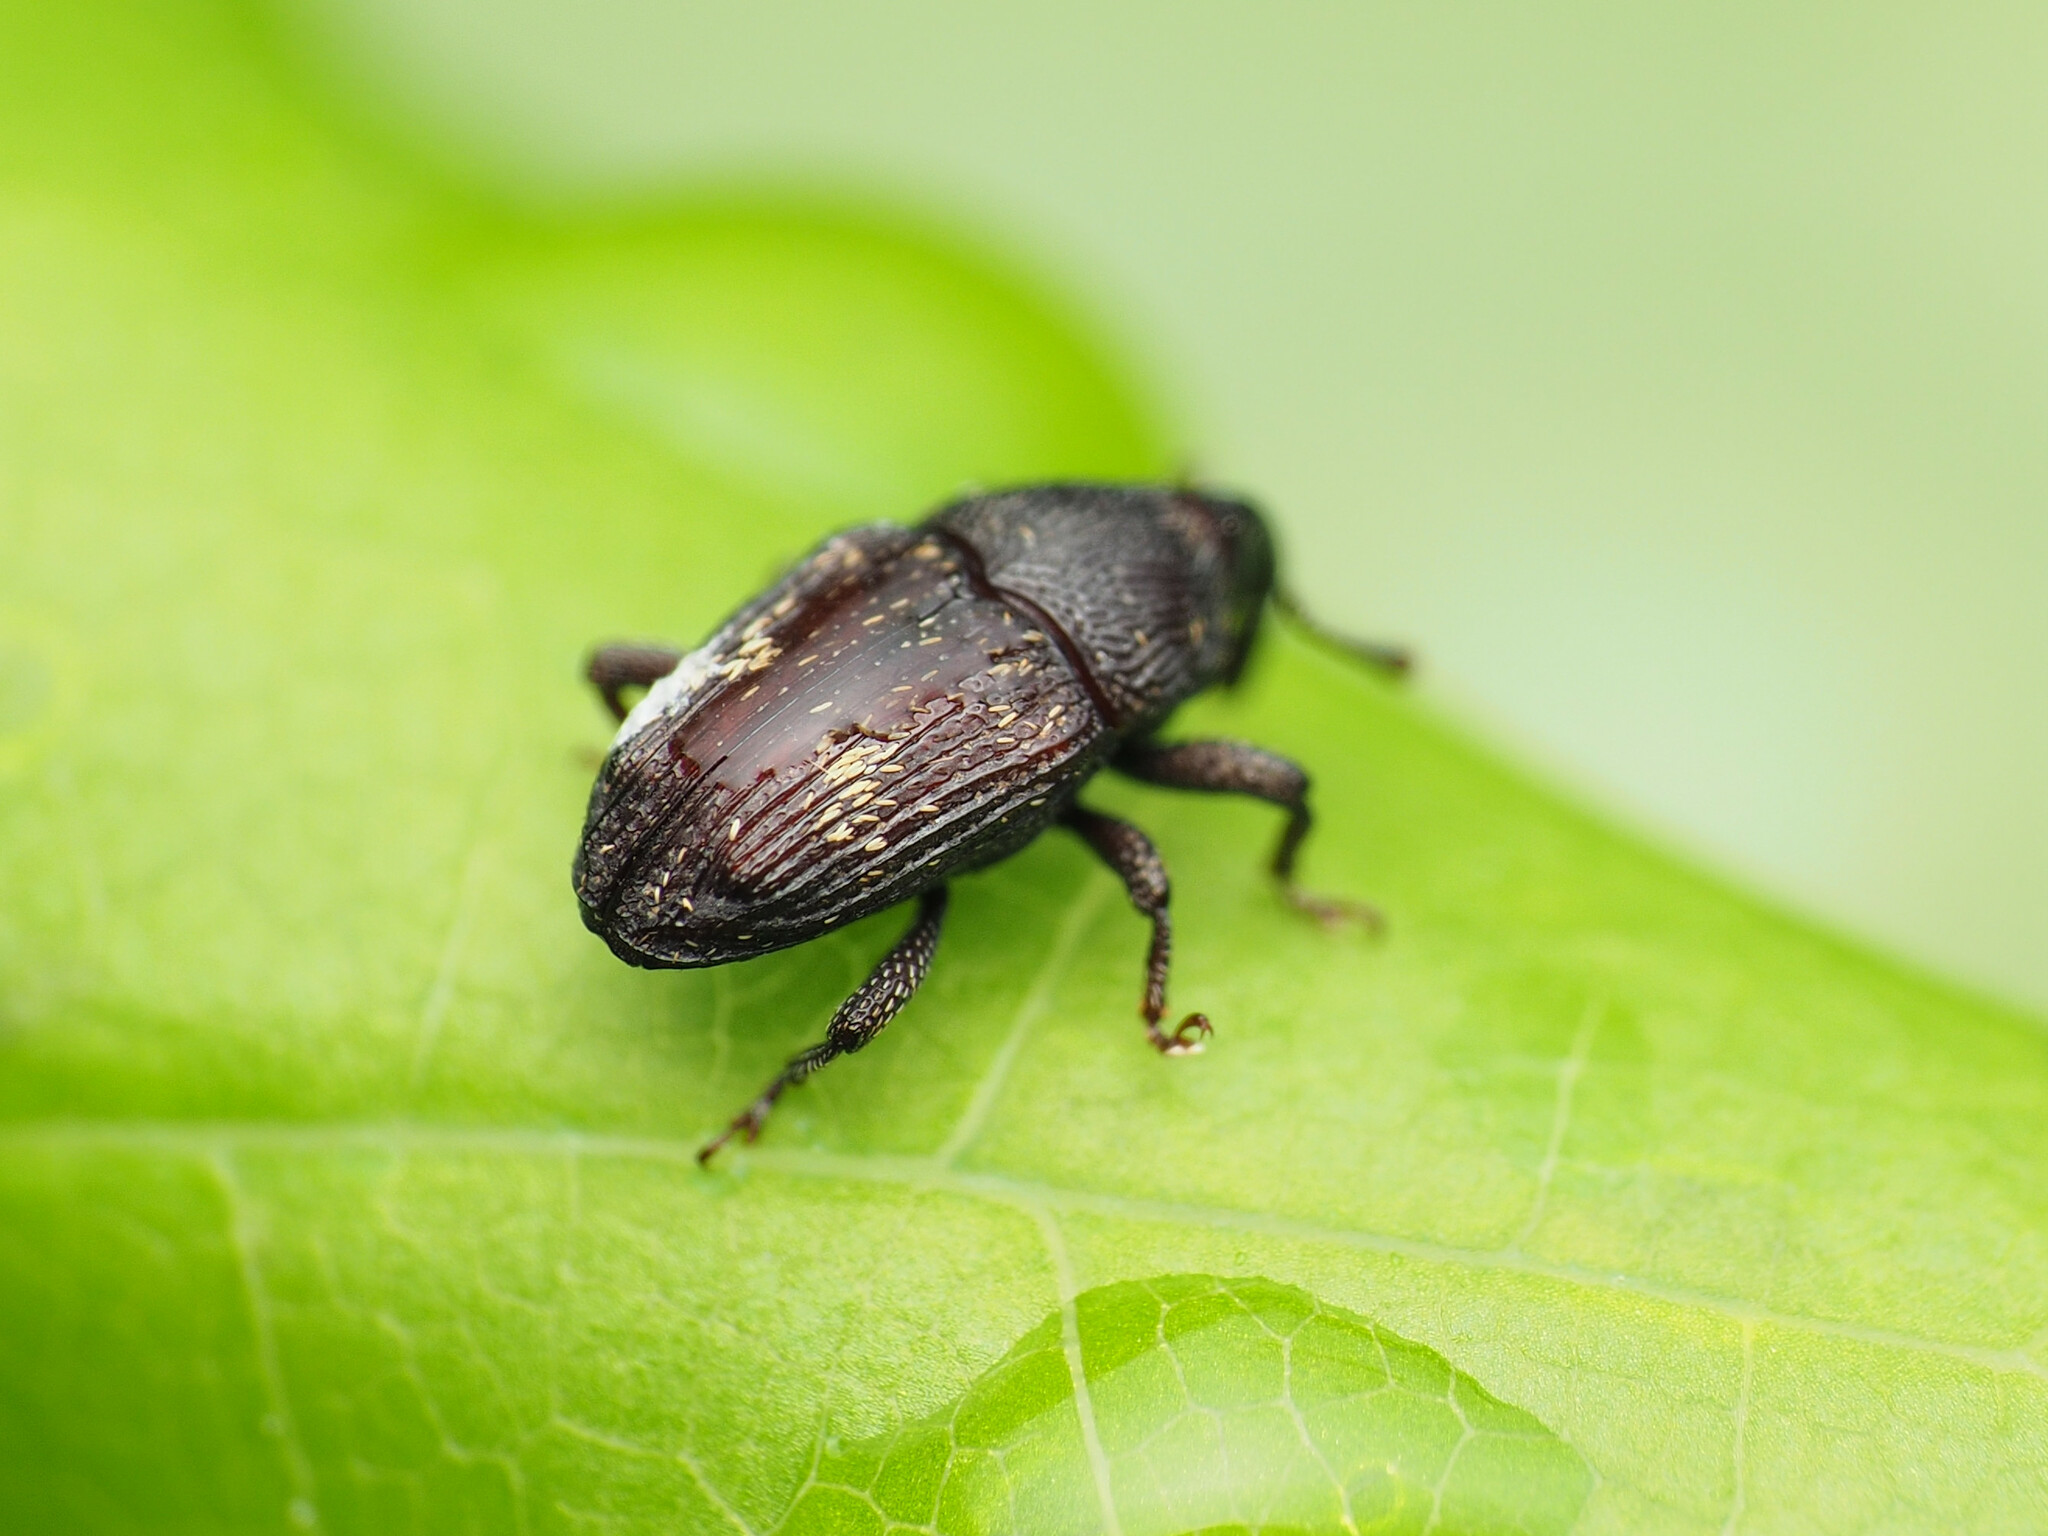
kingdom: Animalia
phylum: Arthropoda
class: Insecta
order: Coleoptera
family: Curculionidae
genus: Glyptobaris
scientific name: Glyptobaris lecontei
